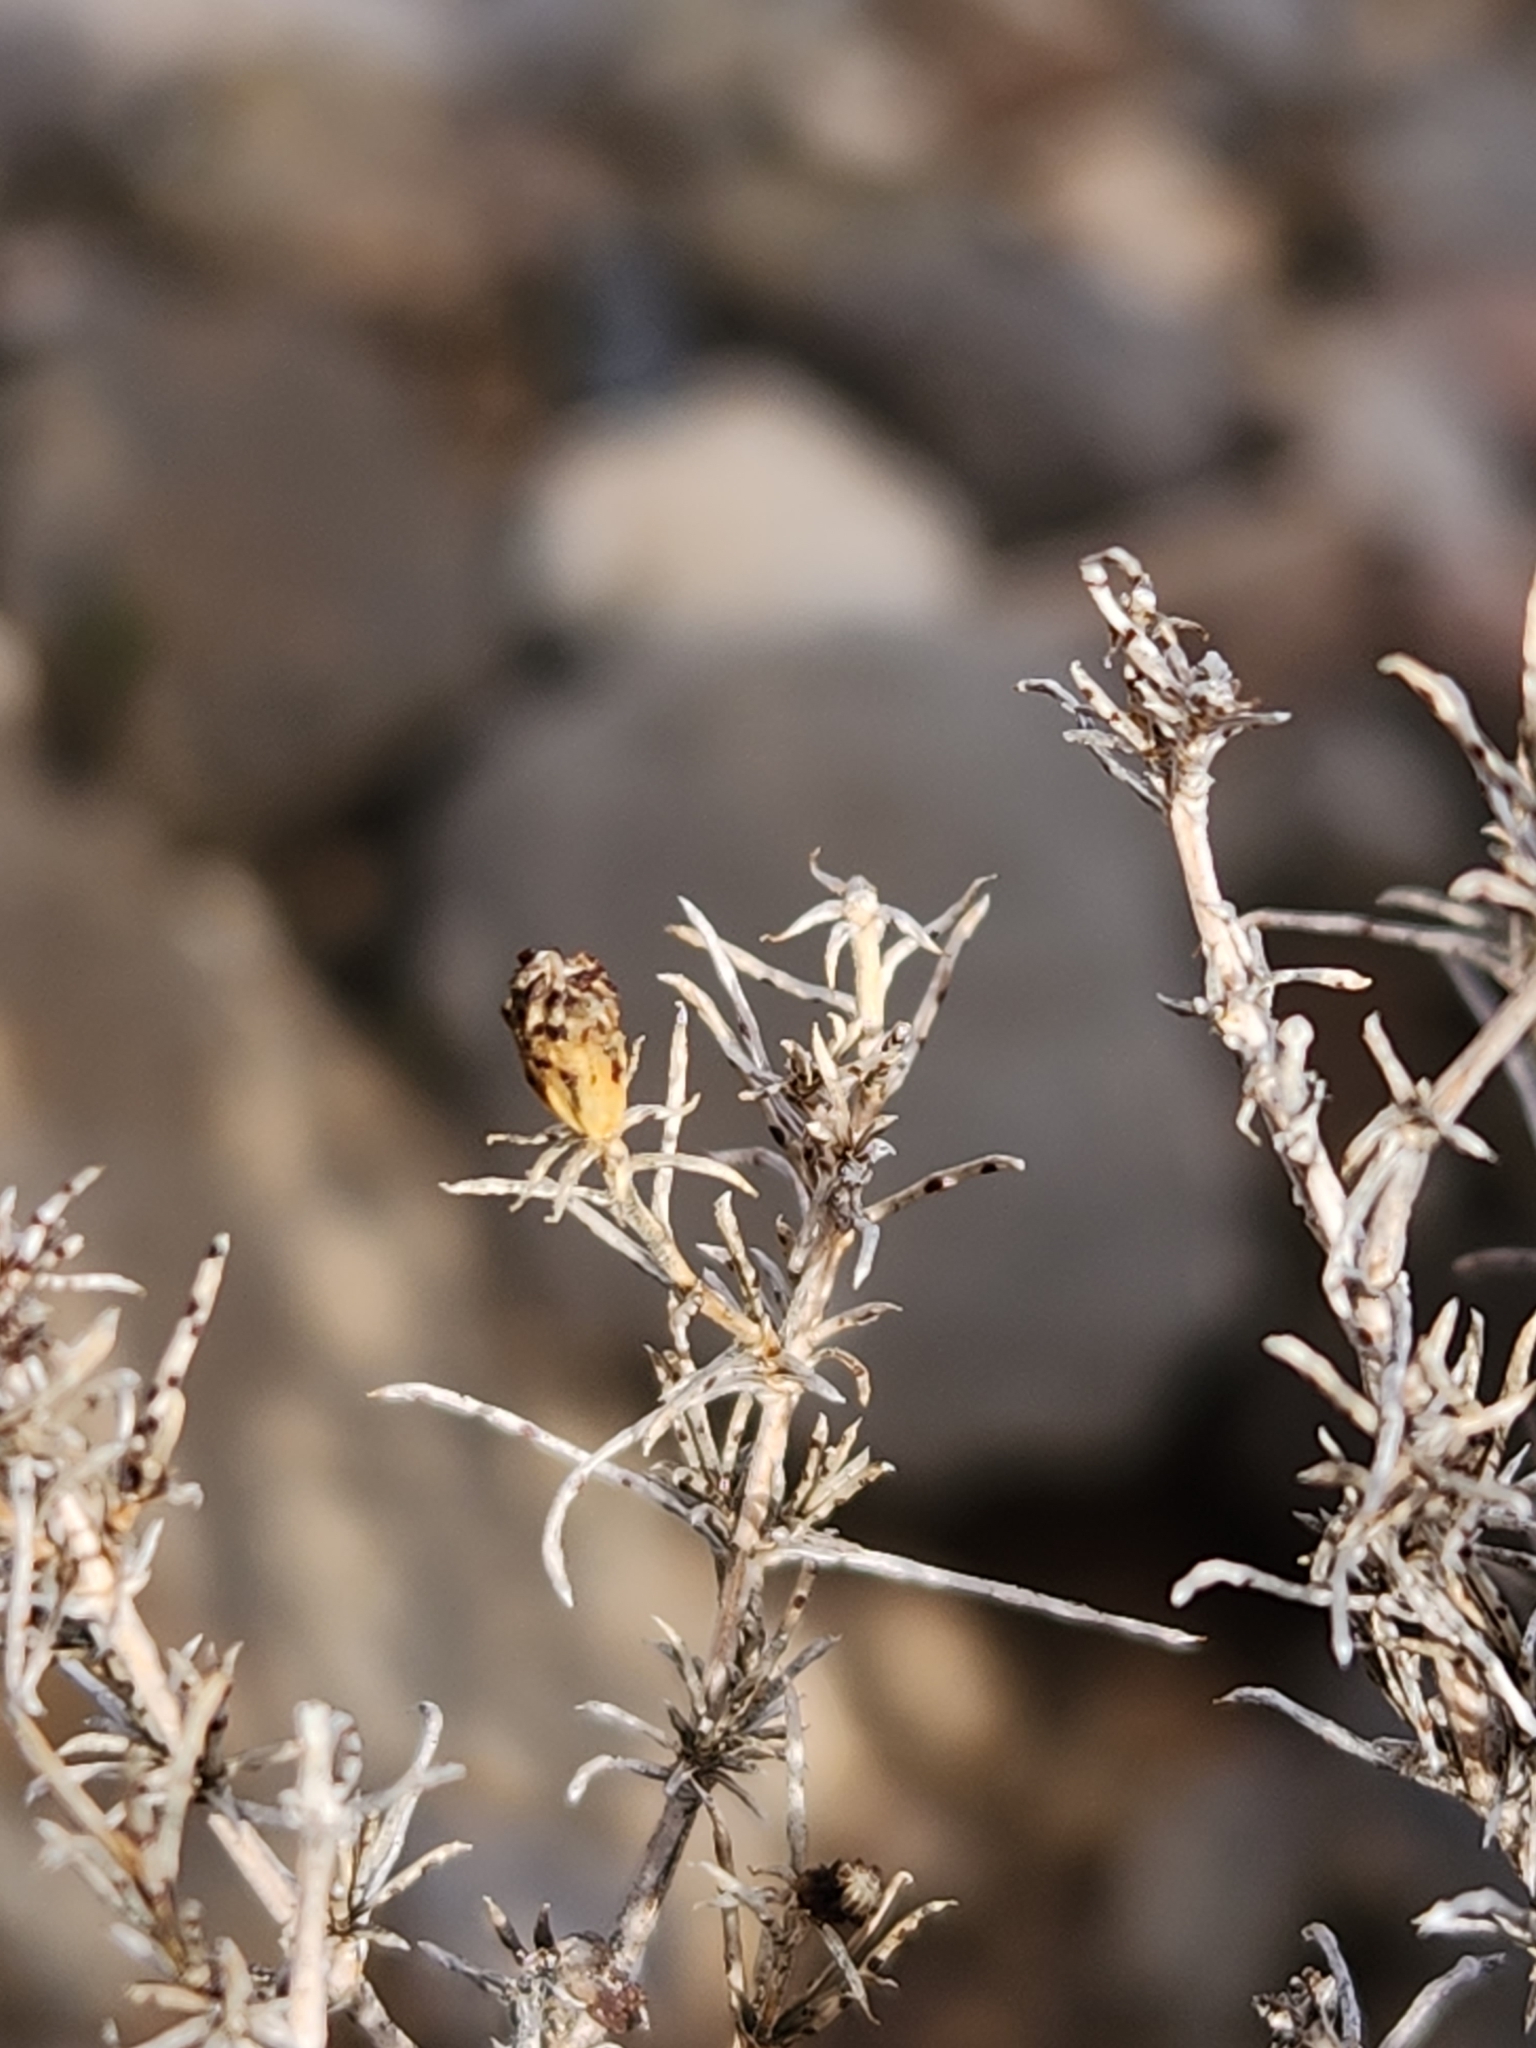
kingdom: Plantae
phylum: Tracheophyta
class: Magnoliopsida
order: Asterales
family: Asteraceae
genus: Thymophylla
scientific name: Thymophylla acerosa
